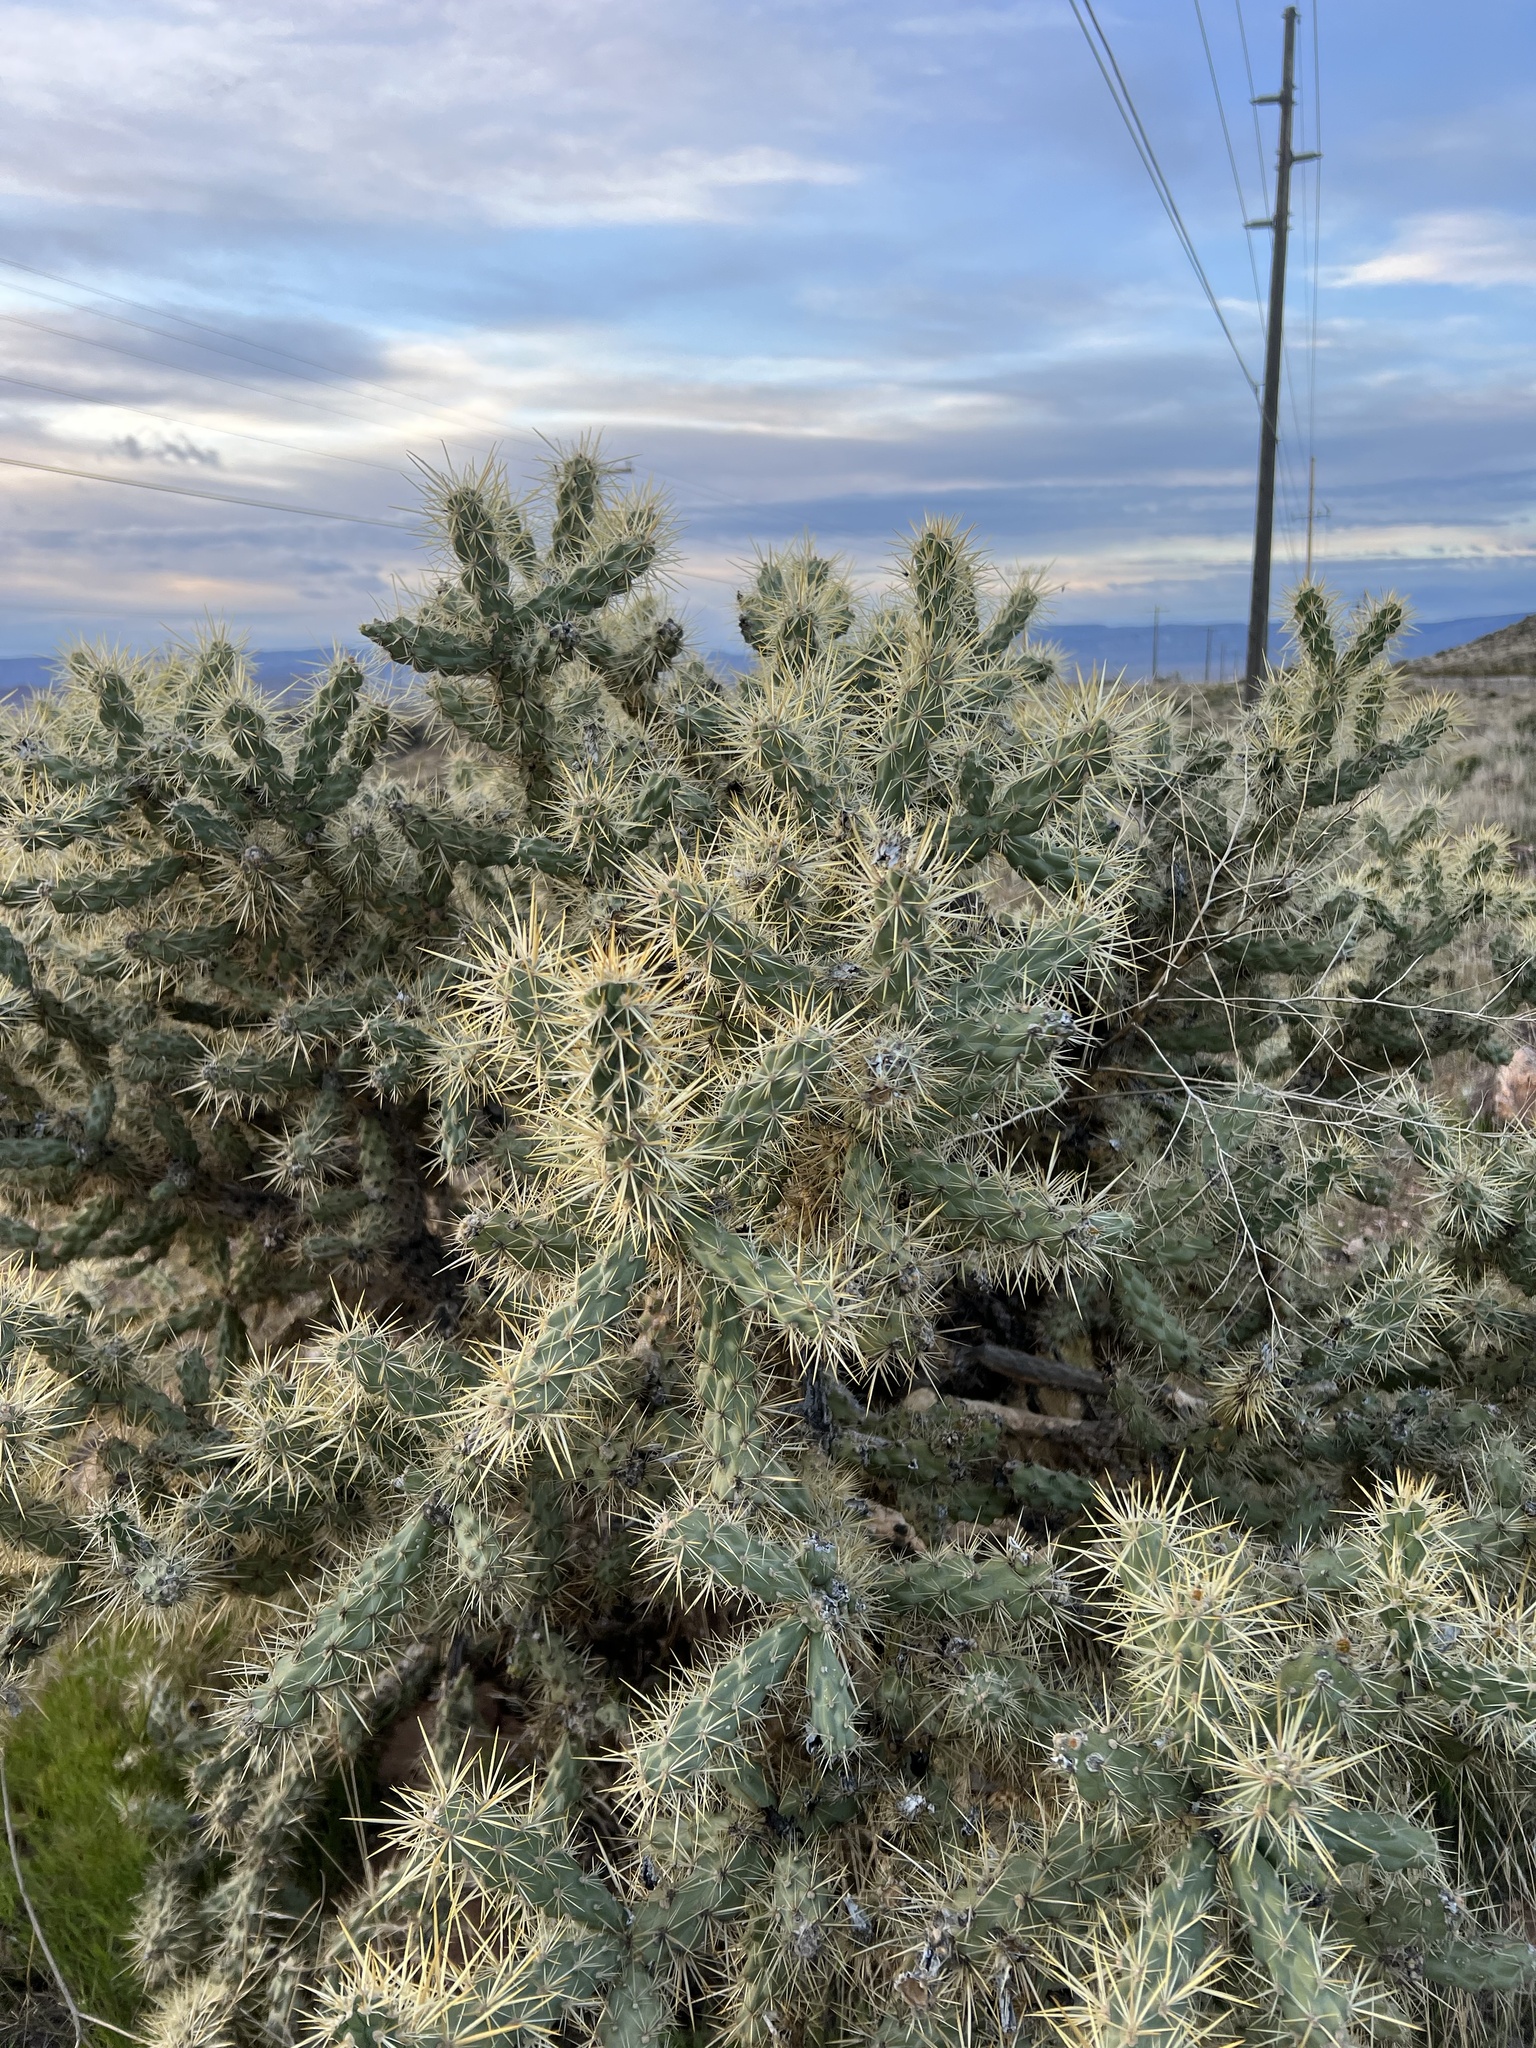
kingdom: Plantae
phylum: Tracheophyta
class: Magnoliopsida
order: Caryophyllales
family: Cactaceae
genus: Cylindropuntia
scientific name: Cylindropuntia echinocarpa
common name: Ground cholla
